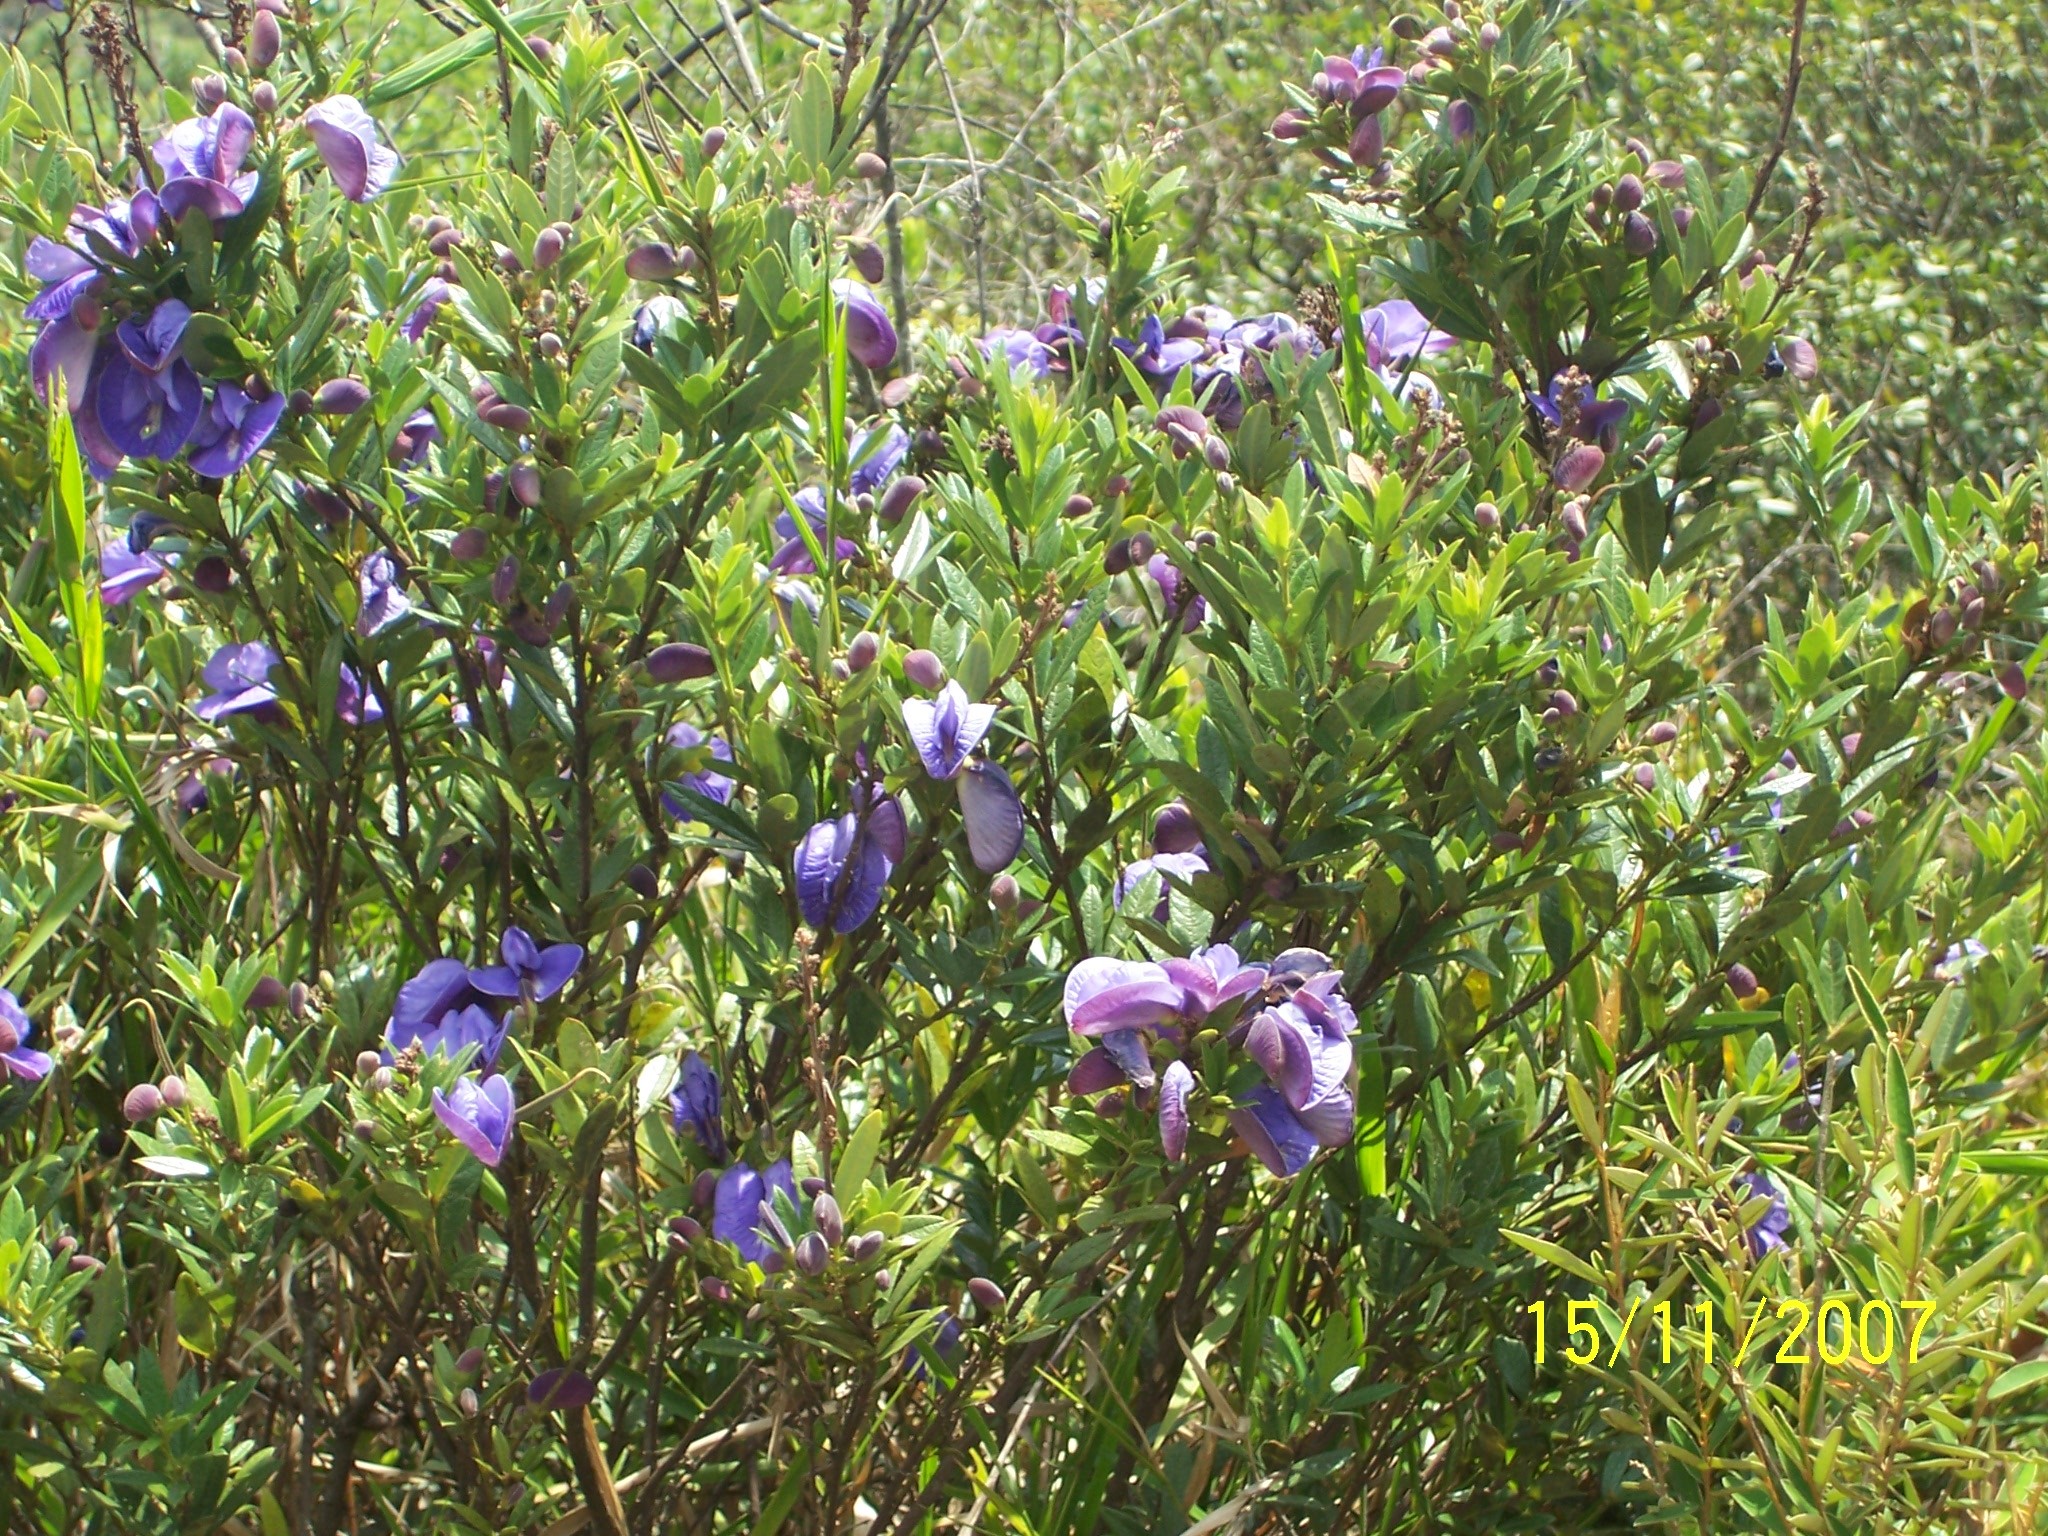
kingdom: Plantae
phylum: Tracheophyta
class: Magnoliopsida
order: Fabales
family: Fabaceae
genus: Periandra
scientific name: Periandra mediterranea
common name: Brazilian licorice
